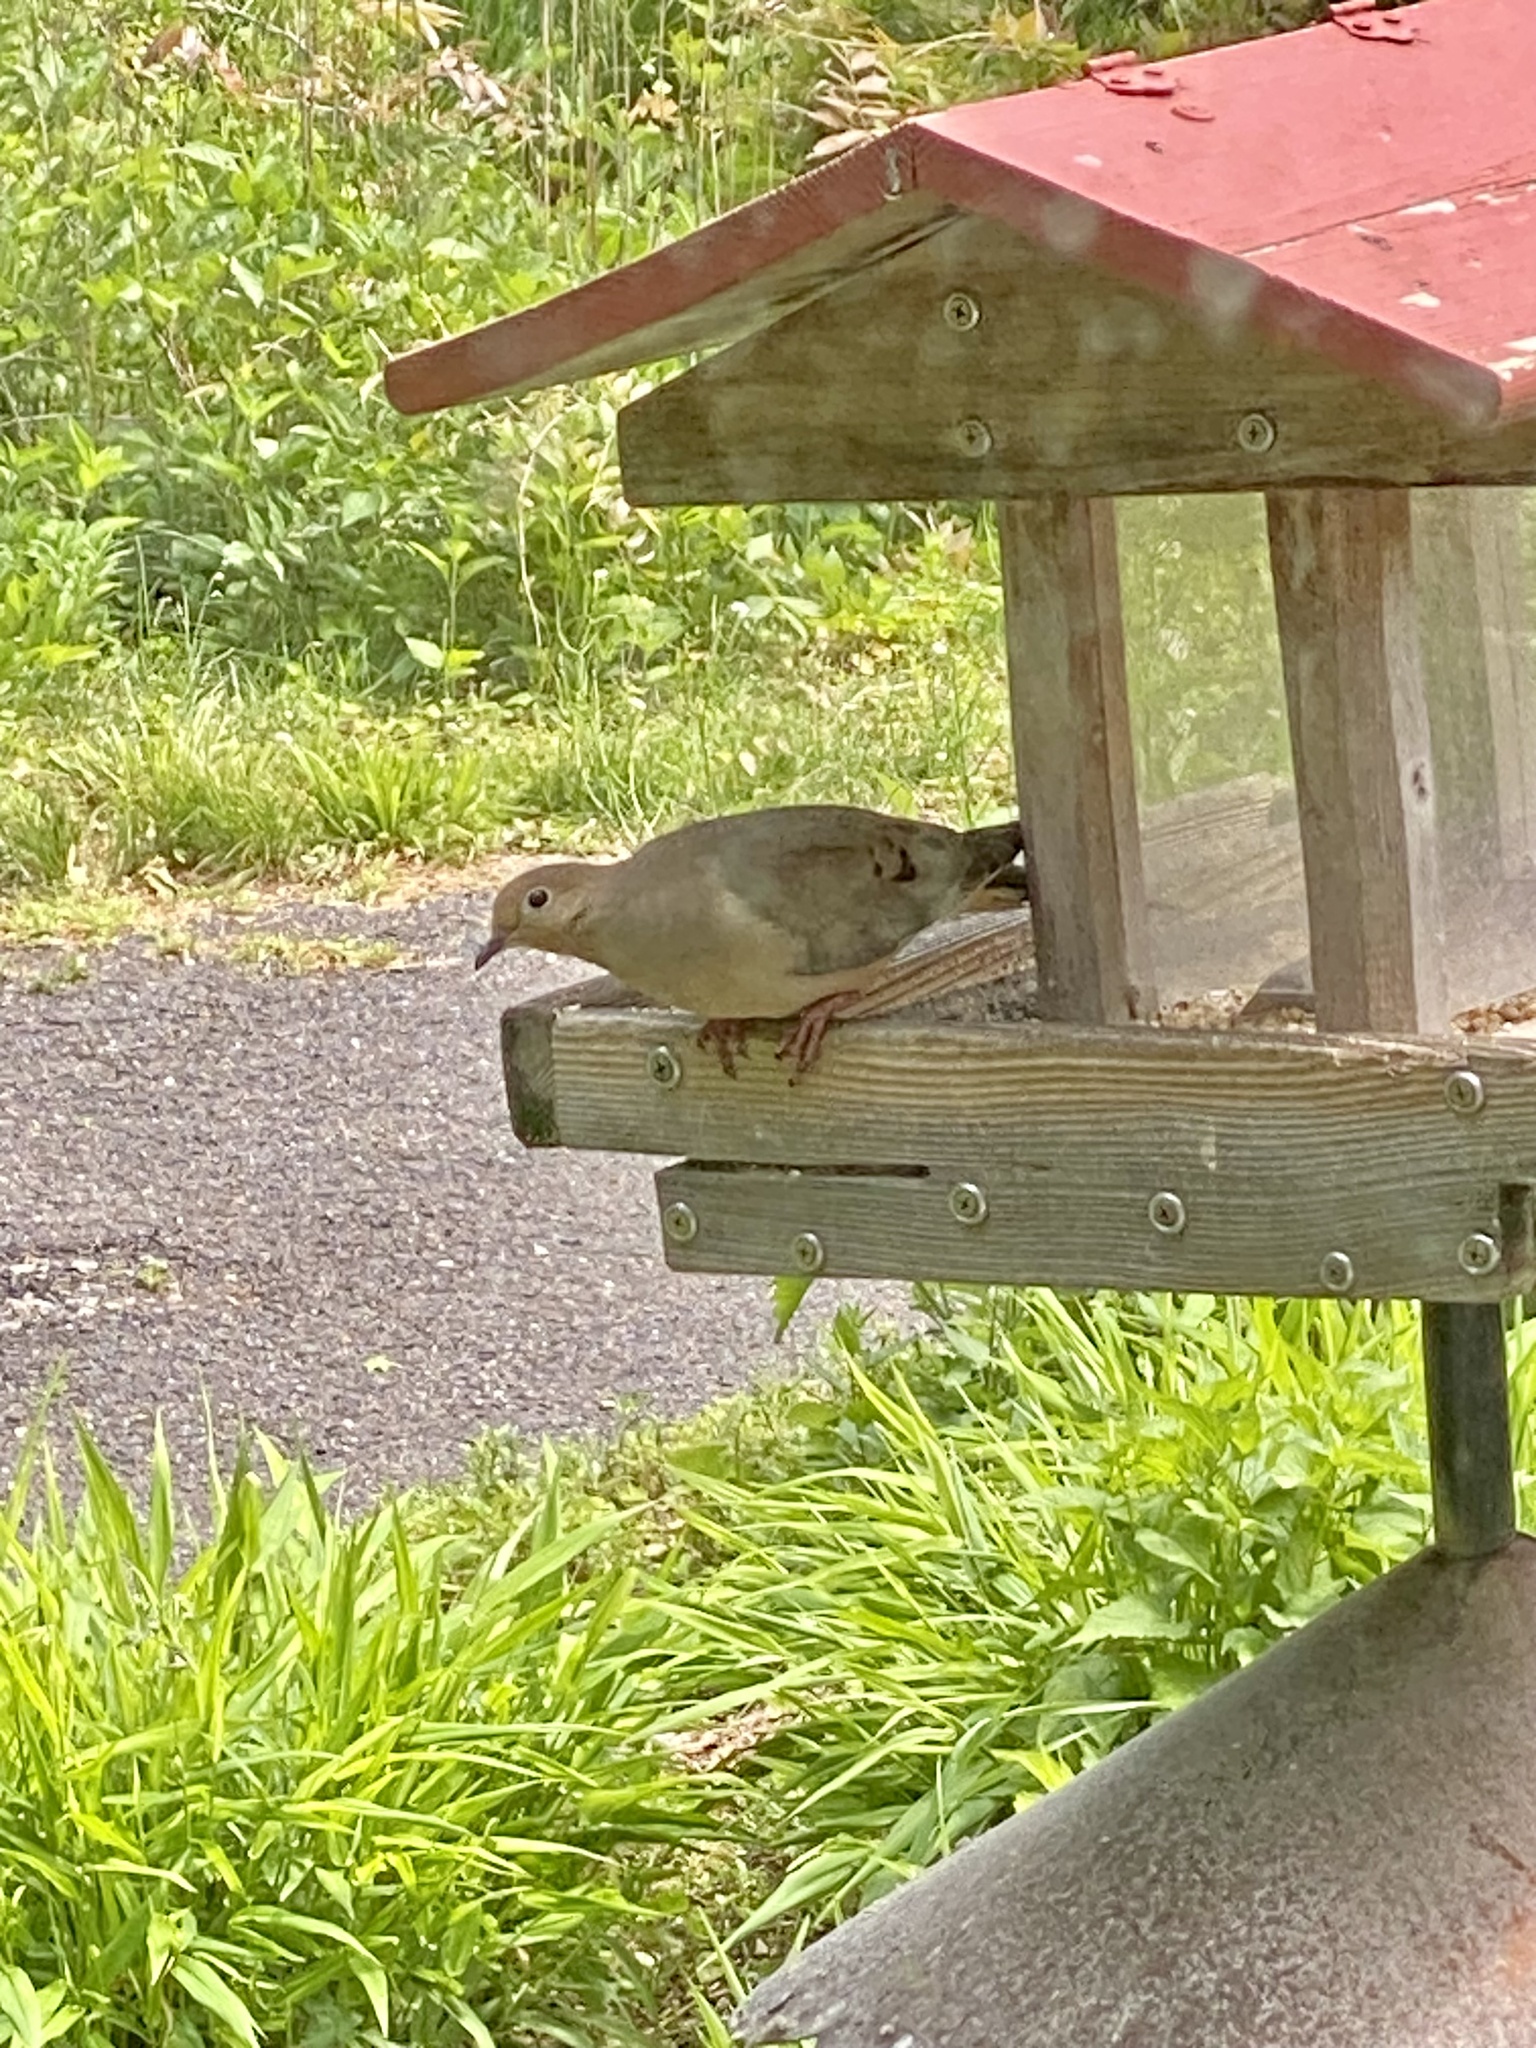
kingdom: Animalia
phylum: Chordata
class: Aves
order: Columbiformes
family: Columbidae
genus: Zenaida
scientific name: Zenaida macroura
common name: Mourning dove
